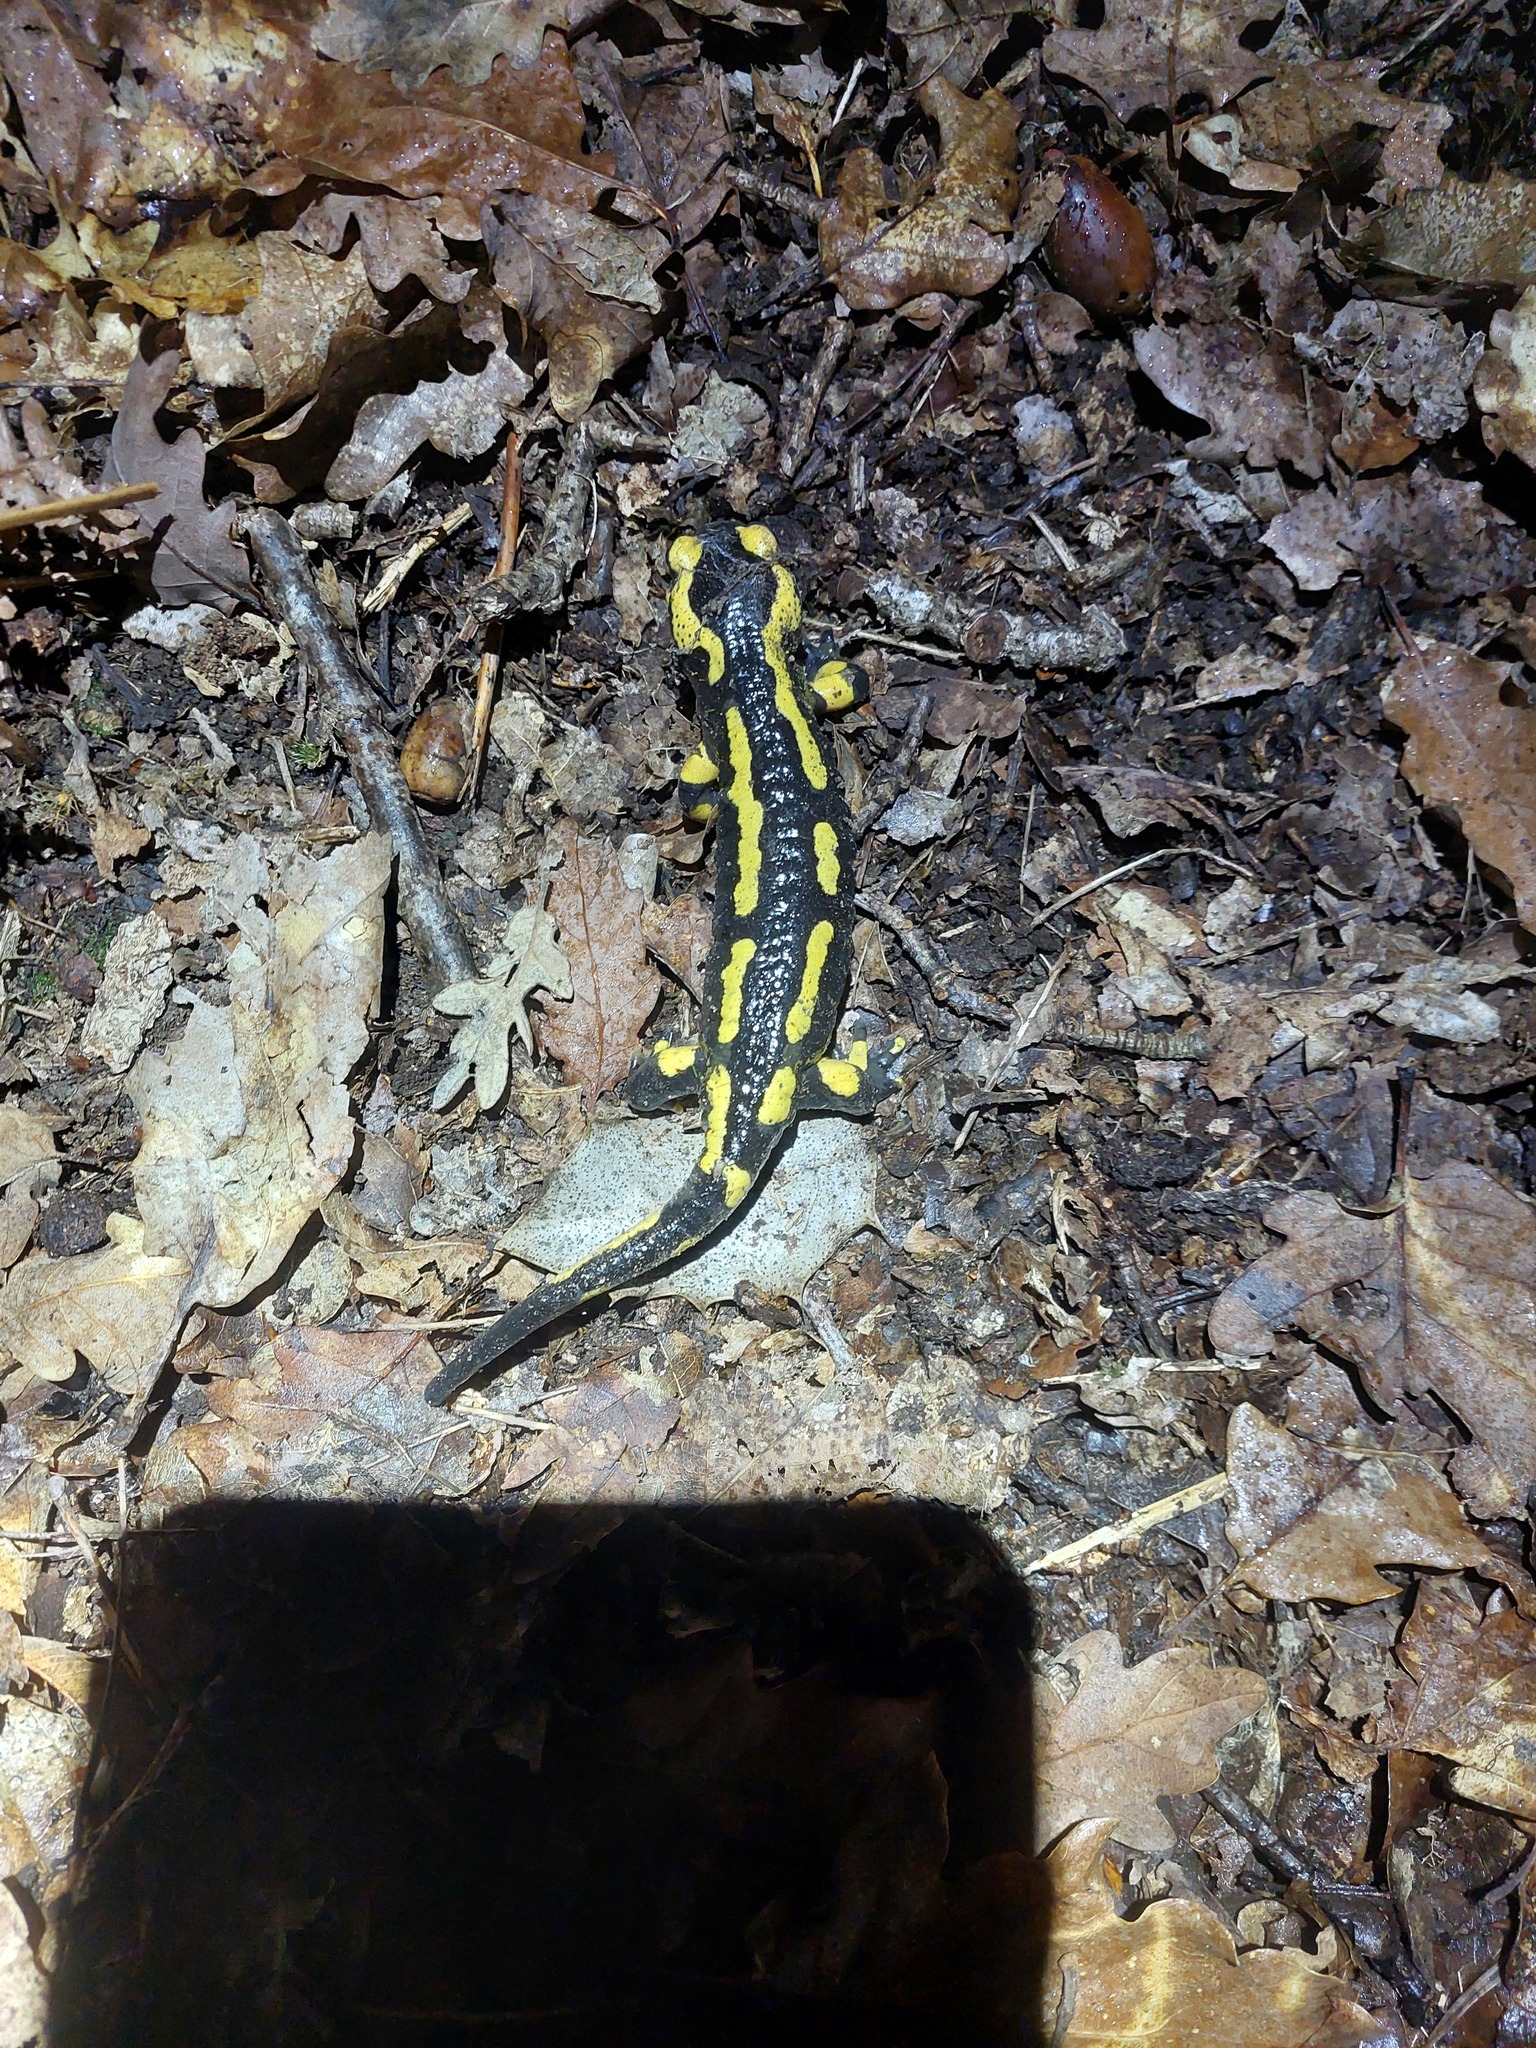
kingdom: Animalia
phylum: Chordata
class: Amphibia
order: Caudata
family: Salamandridae
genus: Salamandra
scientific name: Salamandra salamandra
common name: Fire salamander
